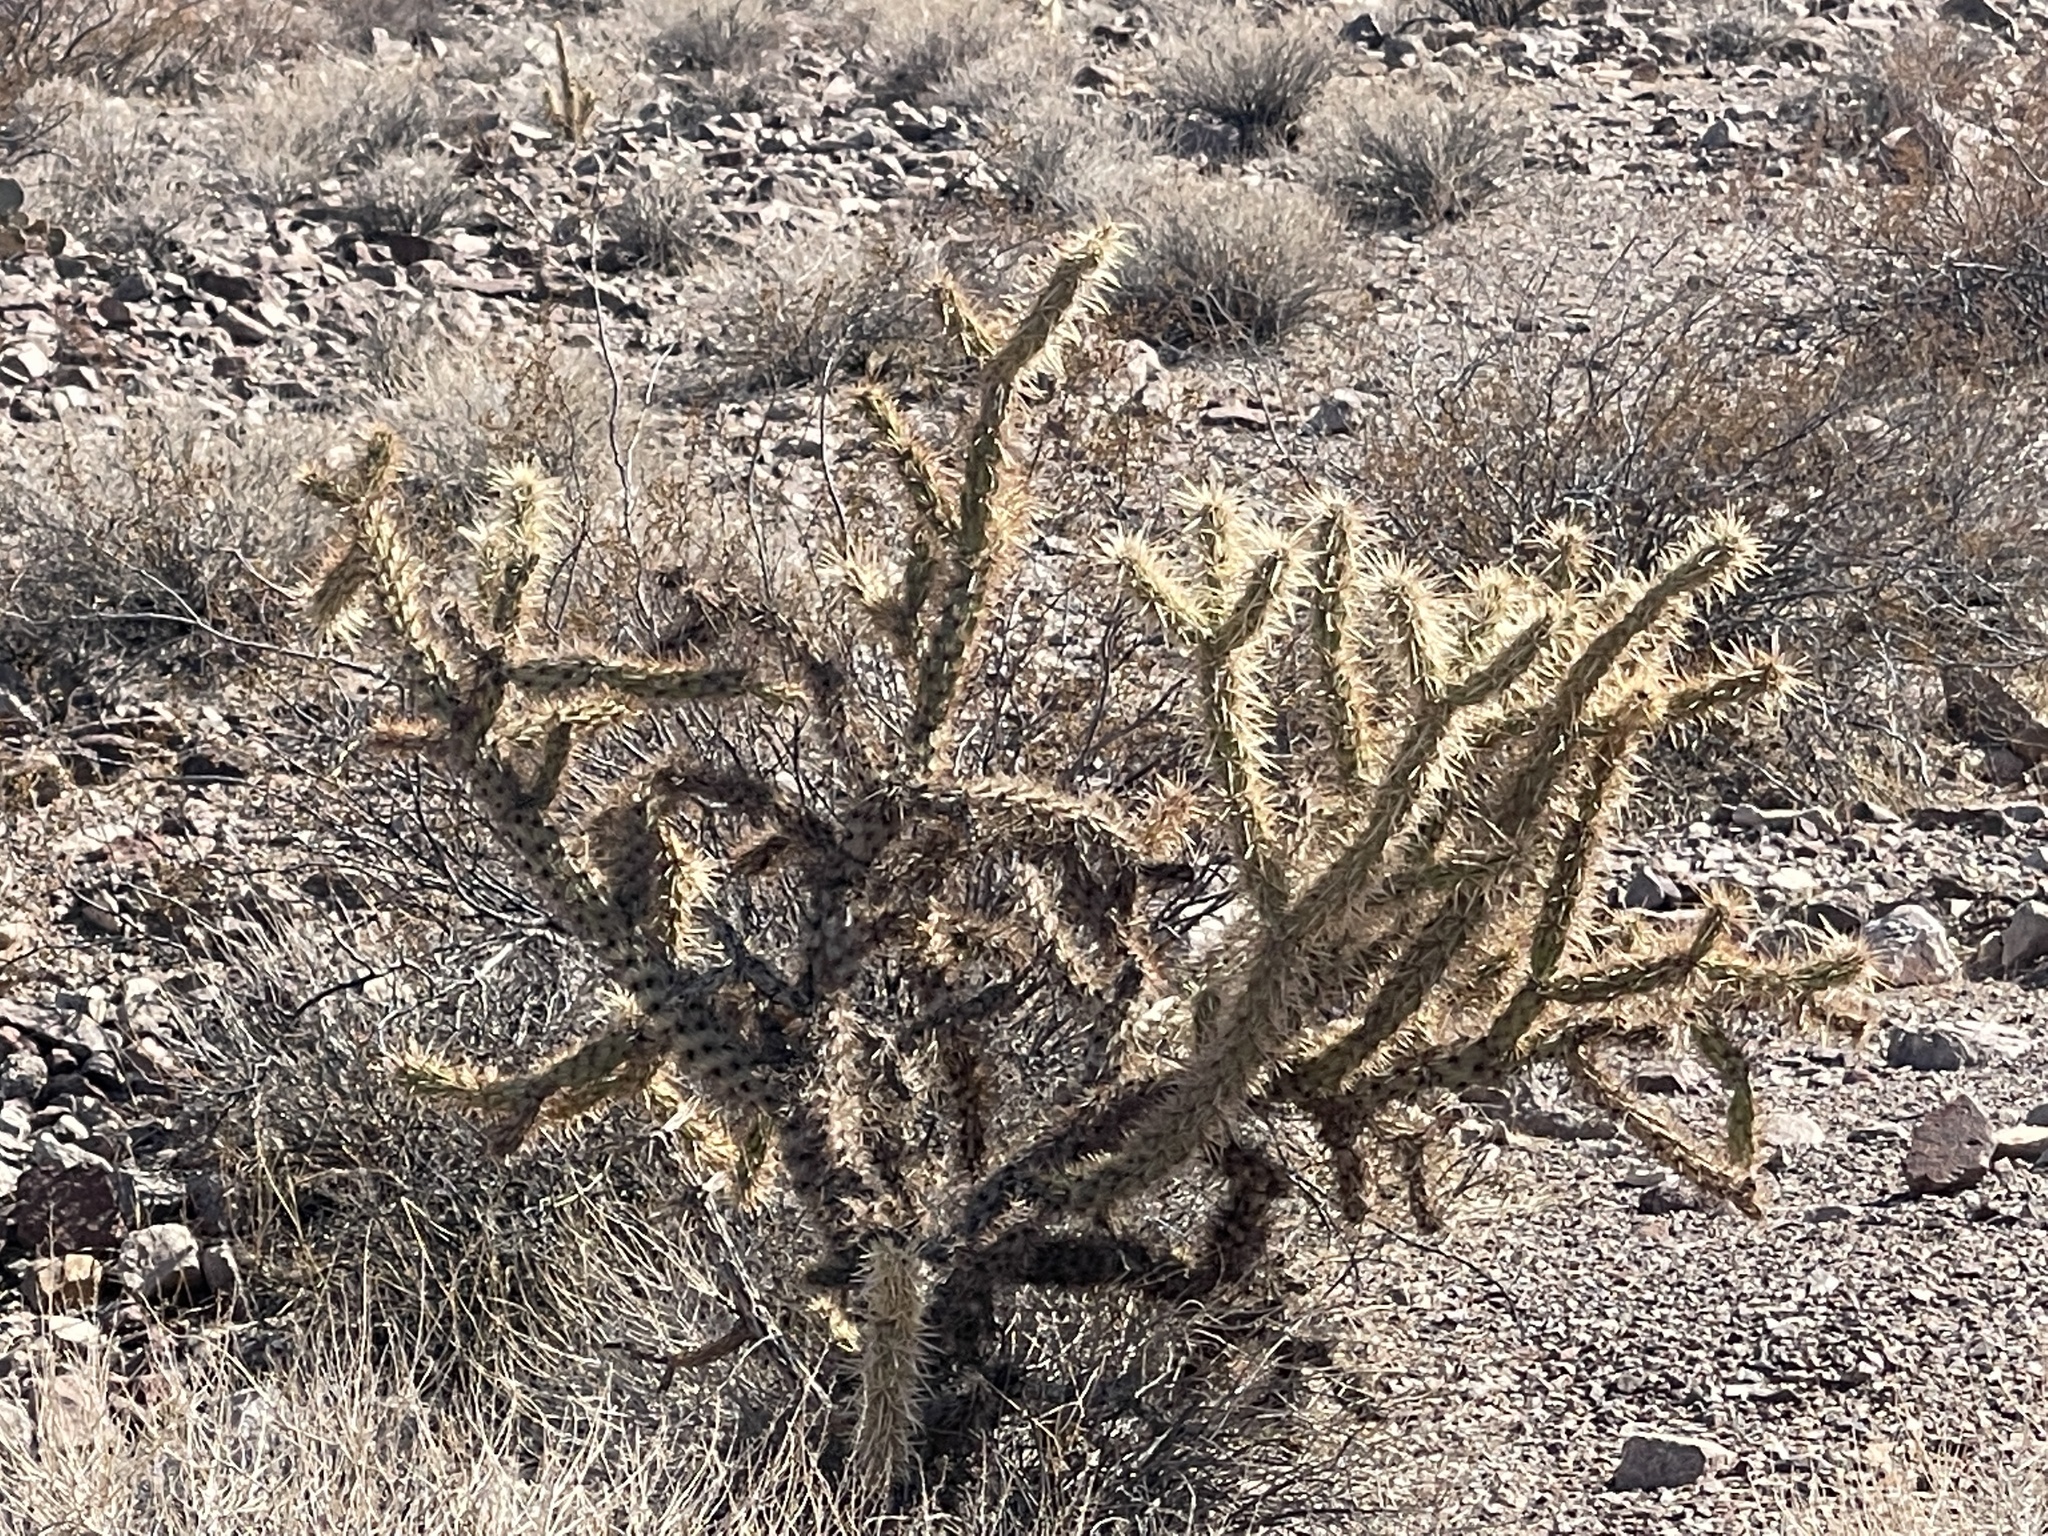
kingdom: Plantae
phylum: Tracheophyta
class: Magnoliopsida
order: Caryophyllales
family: Cactaceae
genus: Cylindropuntia
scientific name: Cylindropuntia acanthocarpa
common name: Buckhorn cholla
